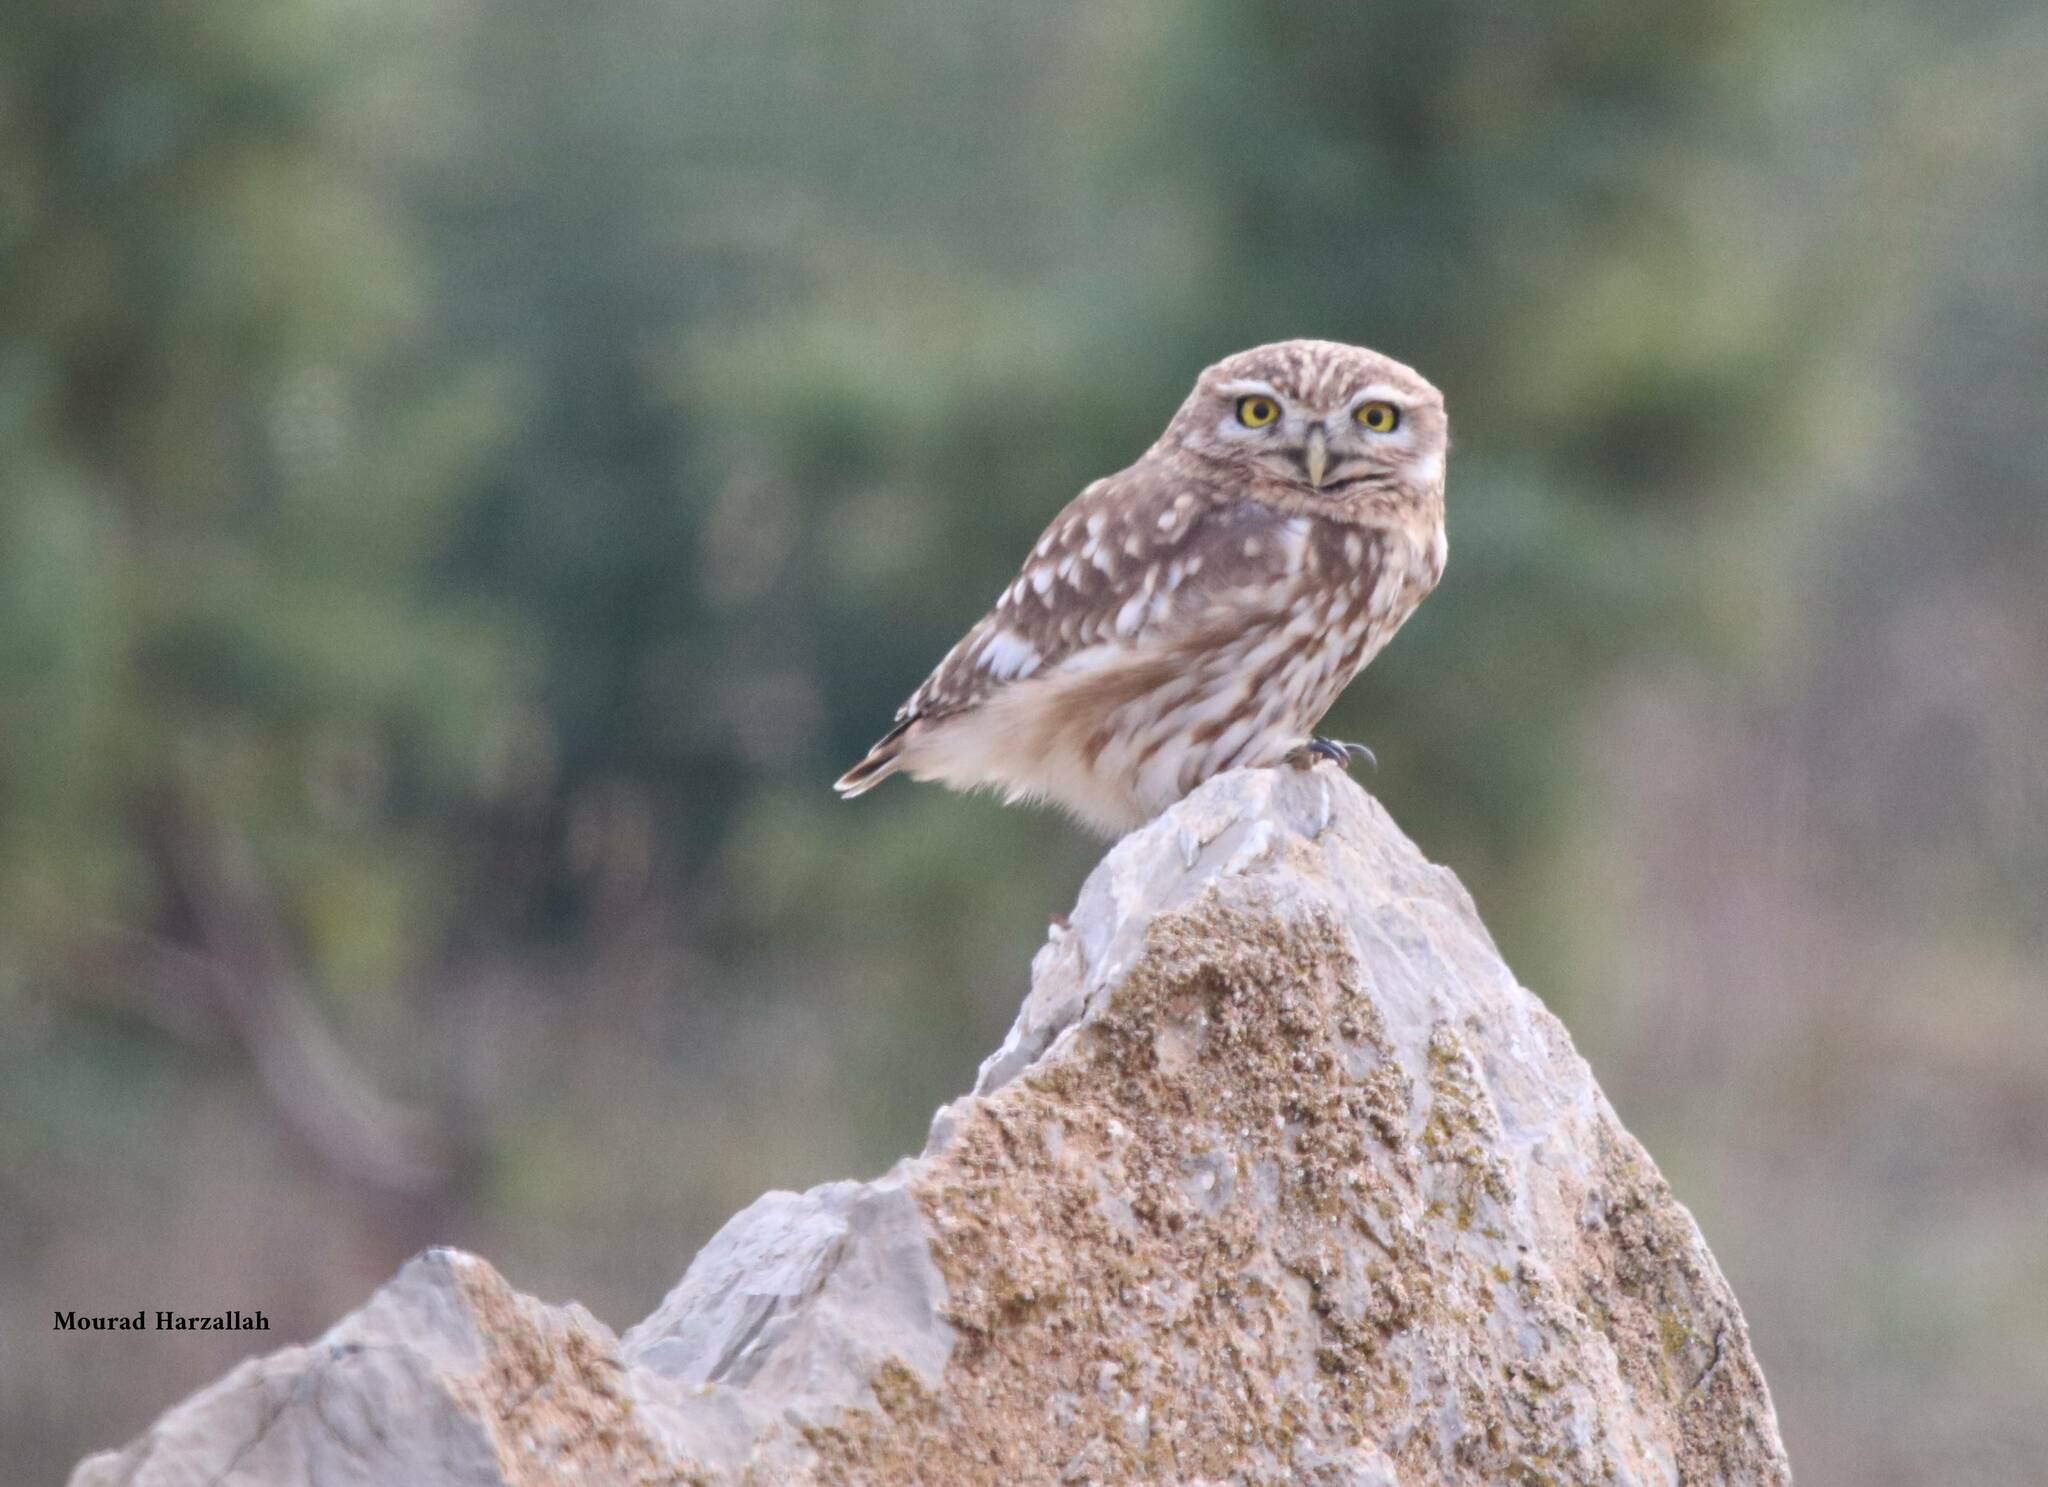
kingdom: Animalia
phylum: Chordata
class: Aves
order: Strigiformes
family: Strigidae
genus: Athene
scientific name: Athene noctua
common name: Little owl
